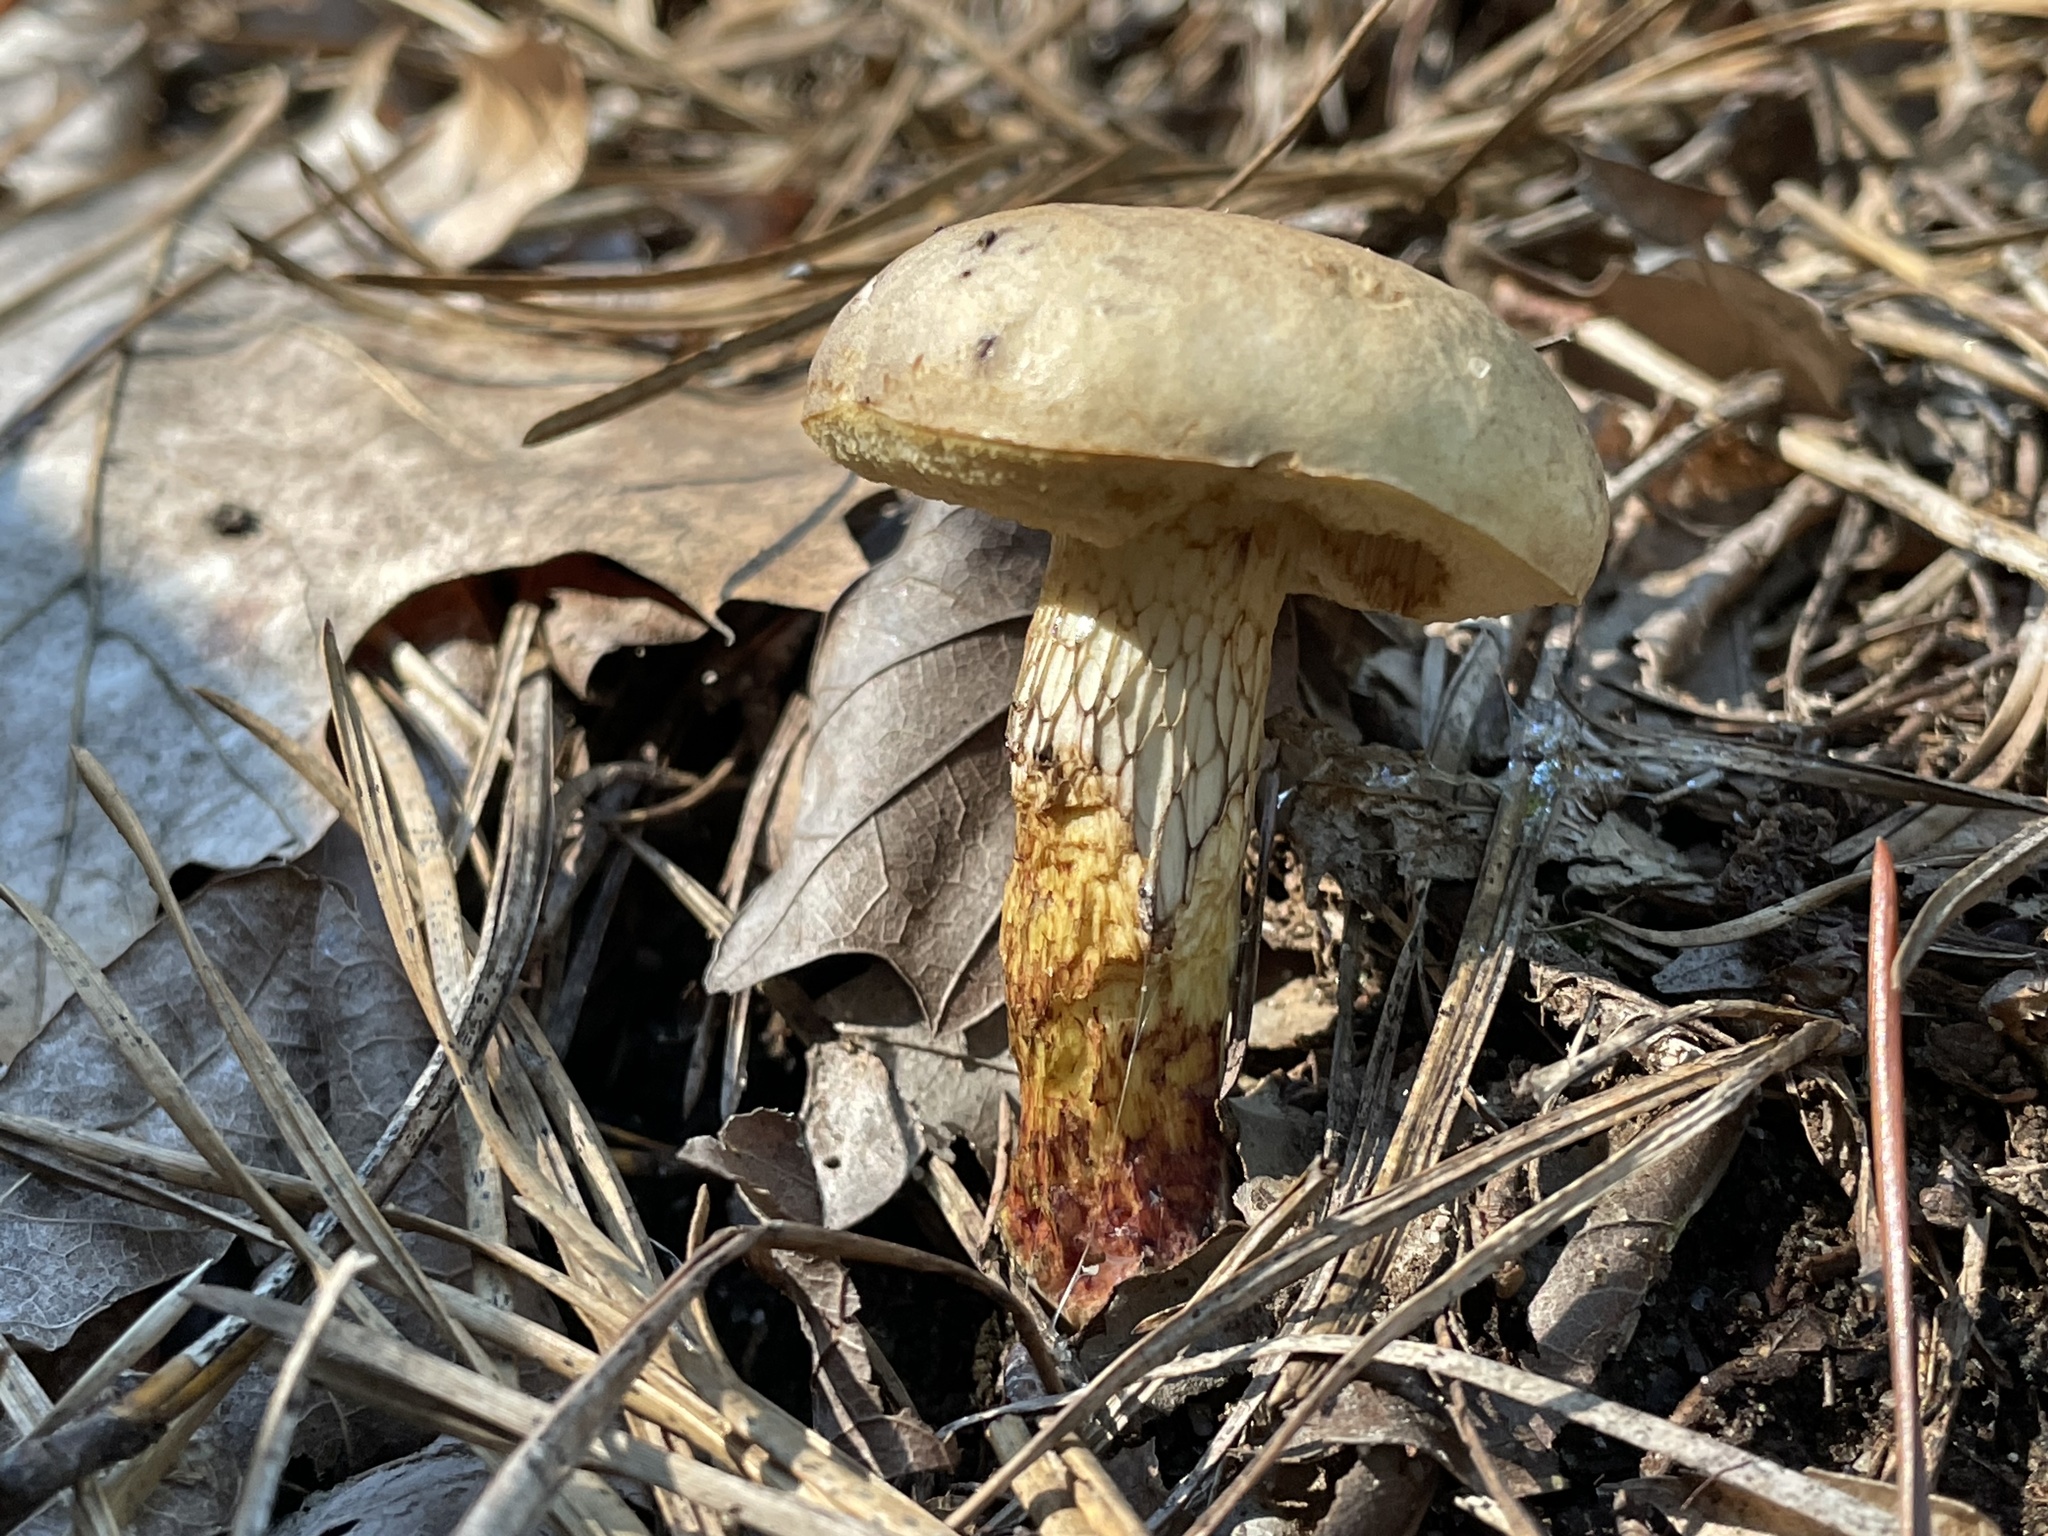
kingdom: Fungi
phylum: Basidiomycota
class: Agaricomycetes
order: Boletales
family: Boletaceae
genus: Retiboletus
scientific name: Retiboletus vinaceipes
